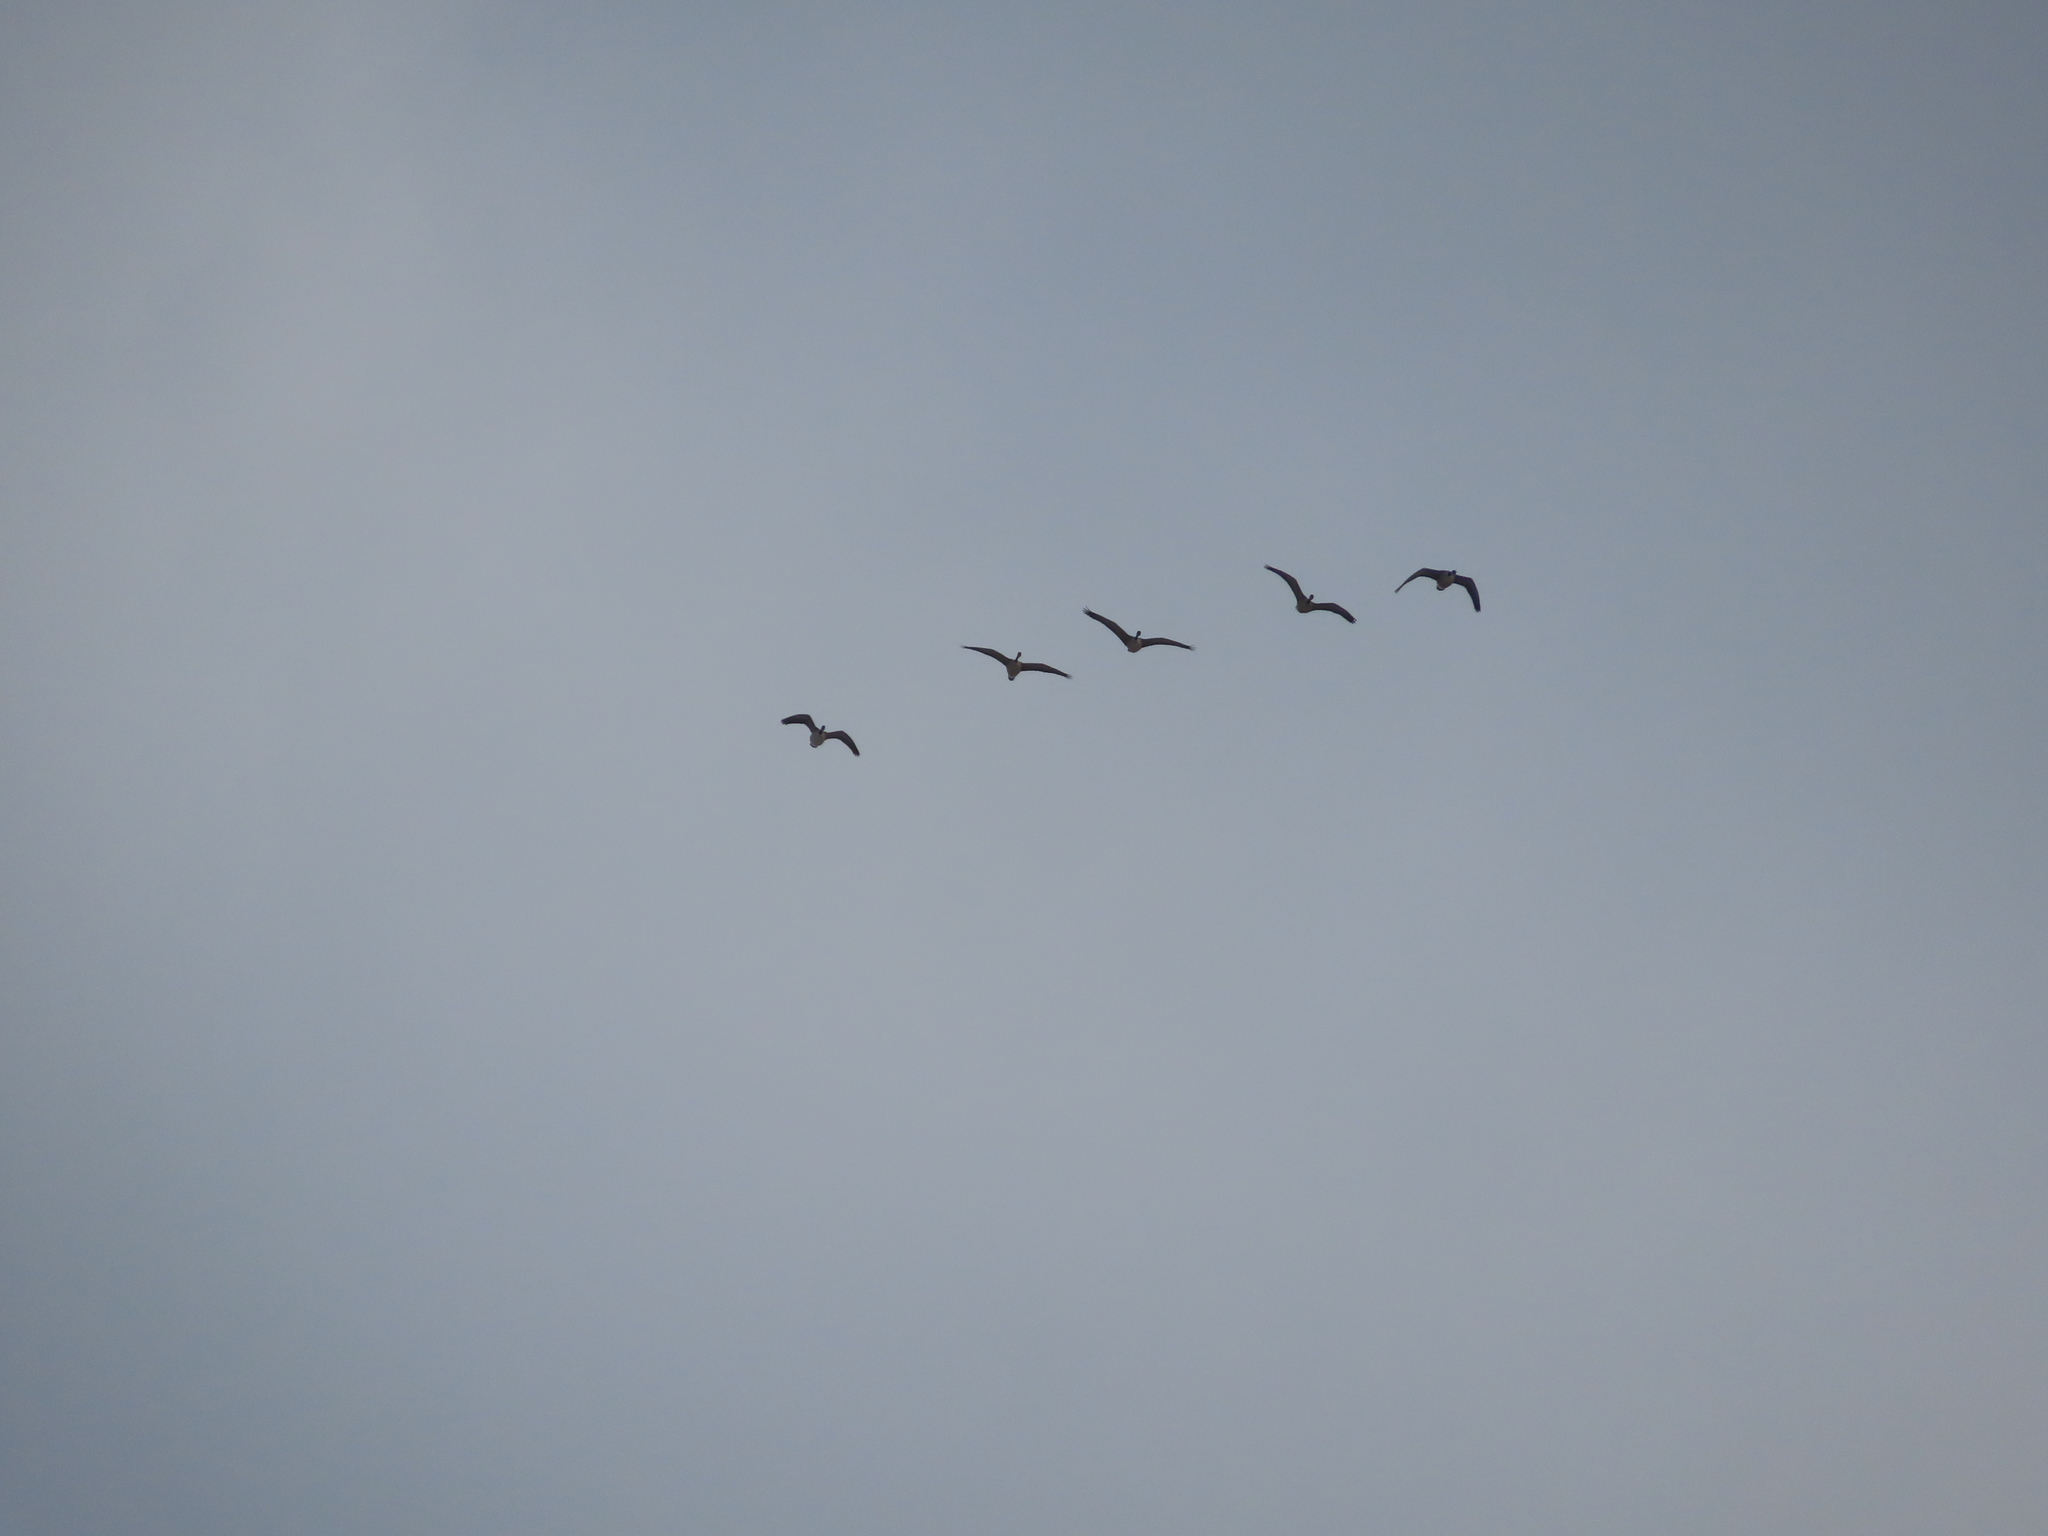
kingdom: Animalia
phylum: Chordata
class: Aves
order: Anseriformes
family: Anatidae
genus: Branta
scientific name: Branta canadensis
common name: Canada goose
